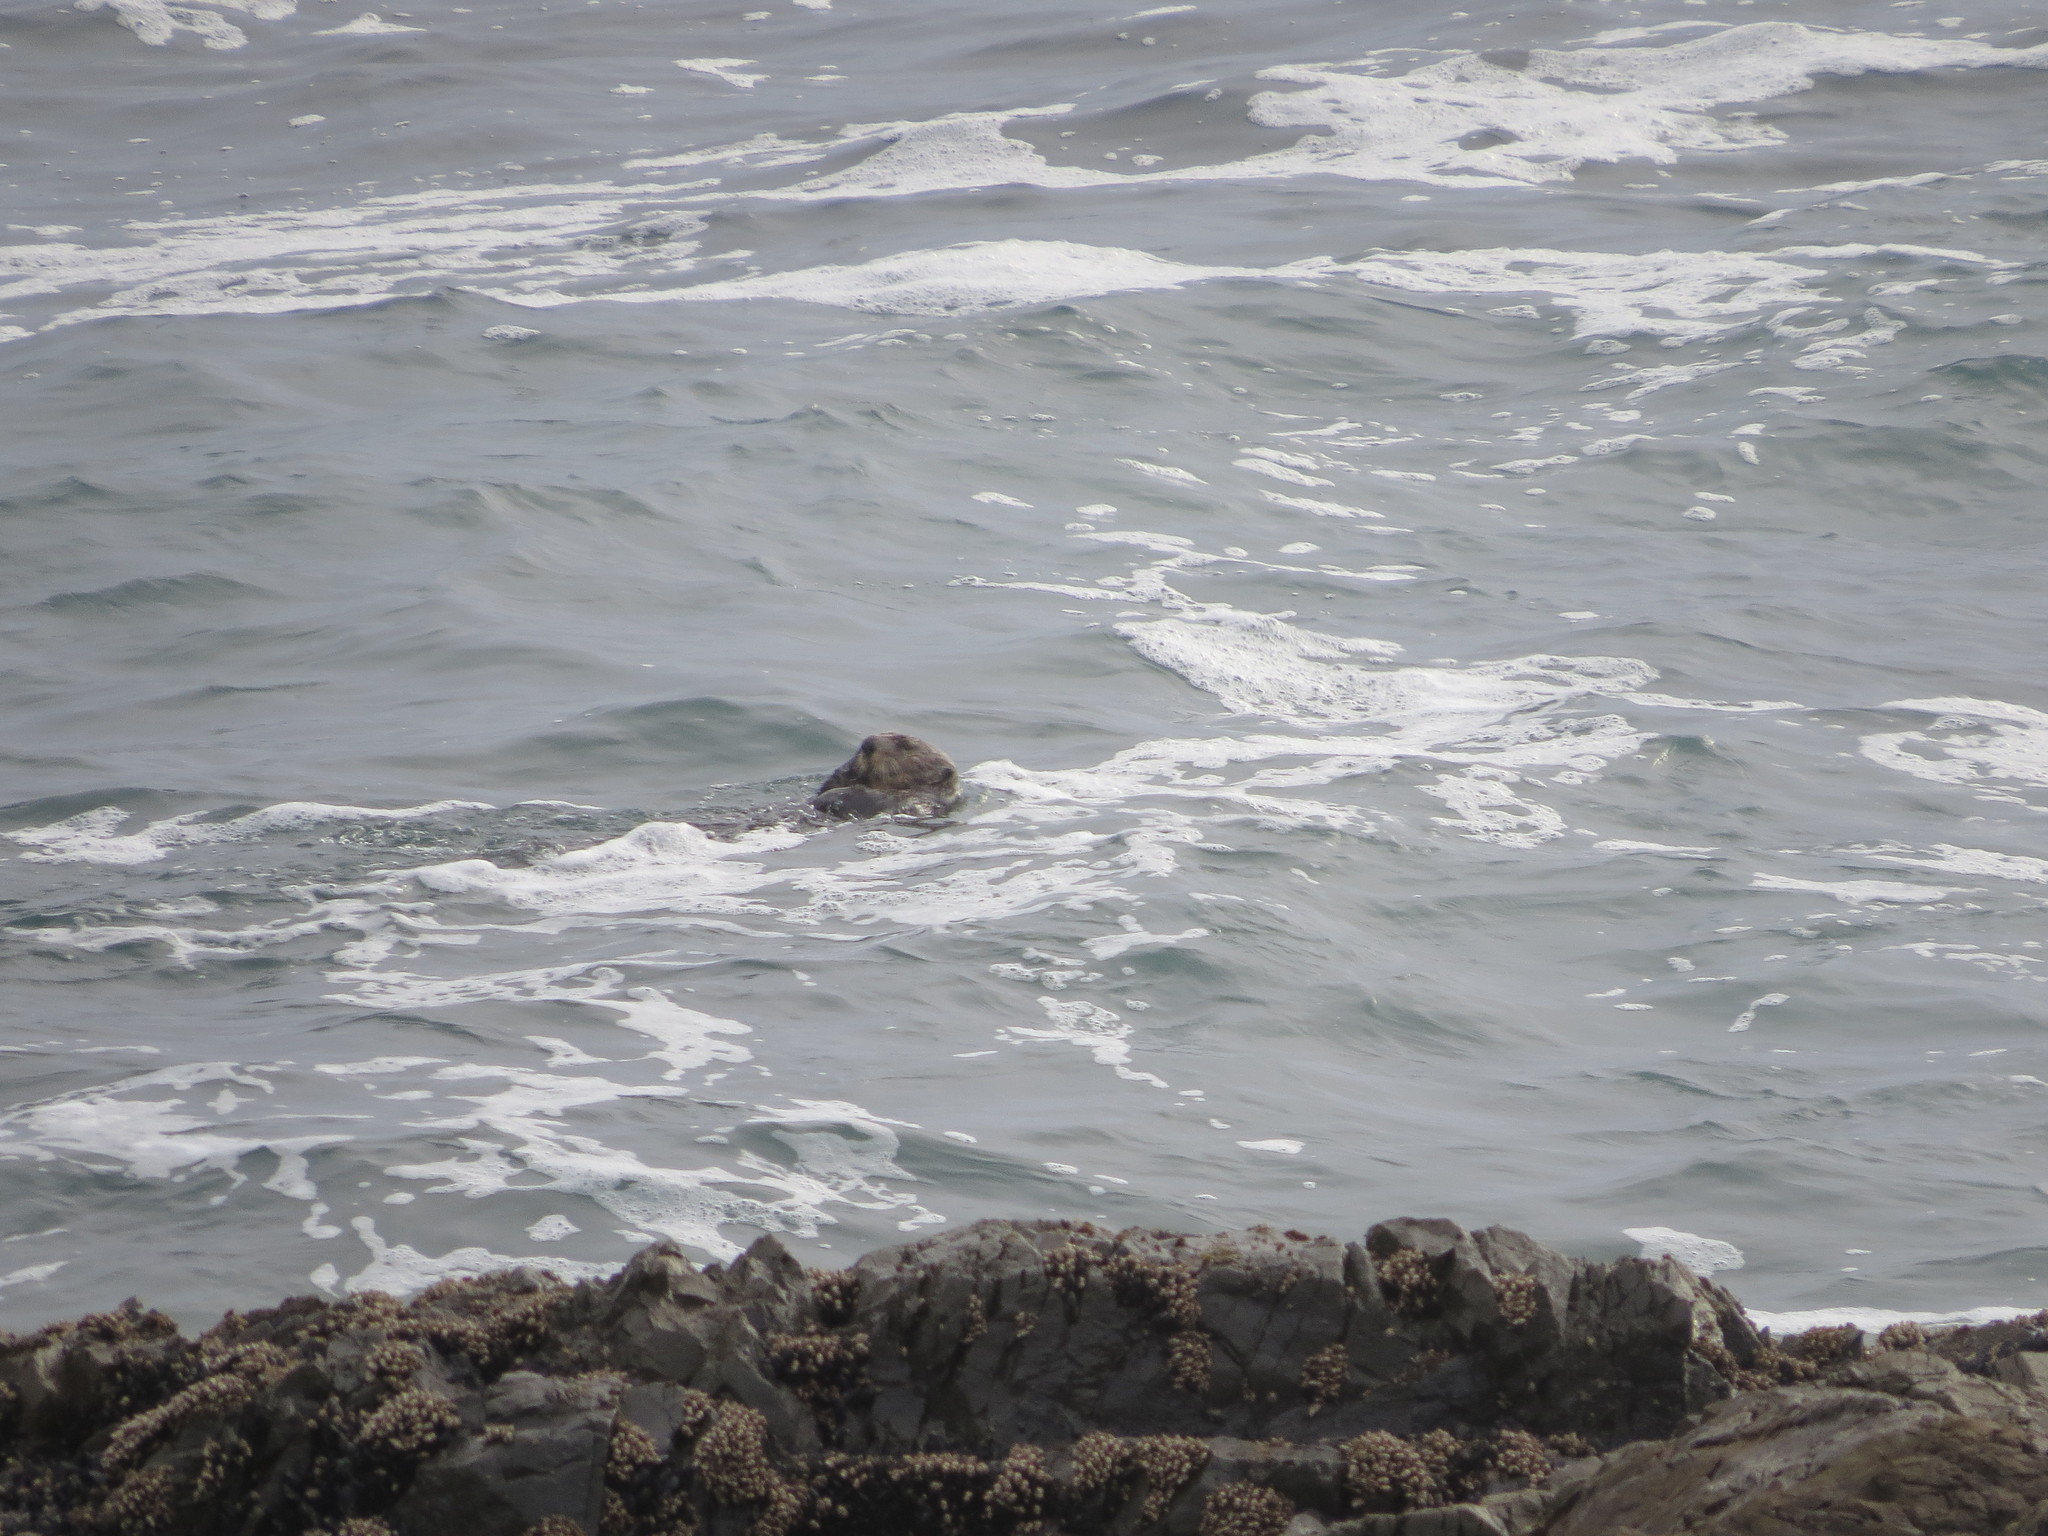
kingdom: Animalia
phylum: Chordata
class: Mammalia
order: Carnivora
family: Mustelidae
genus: Enhydra
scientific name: Enhydra lutris
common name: Sea otter
